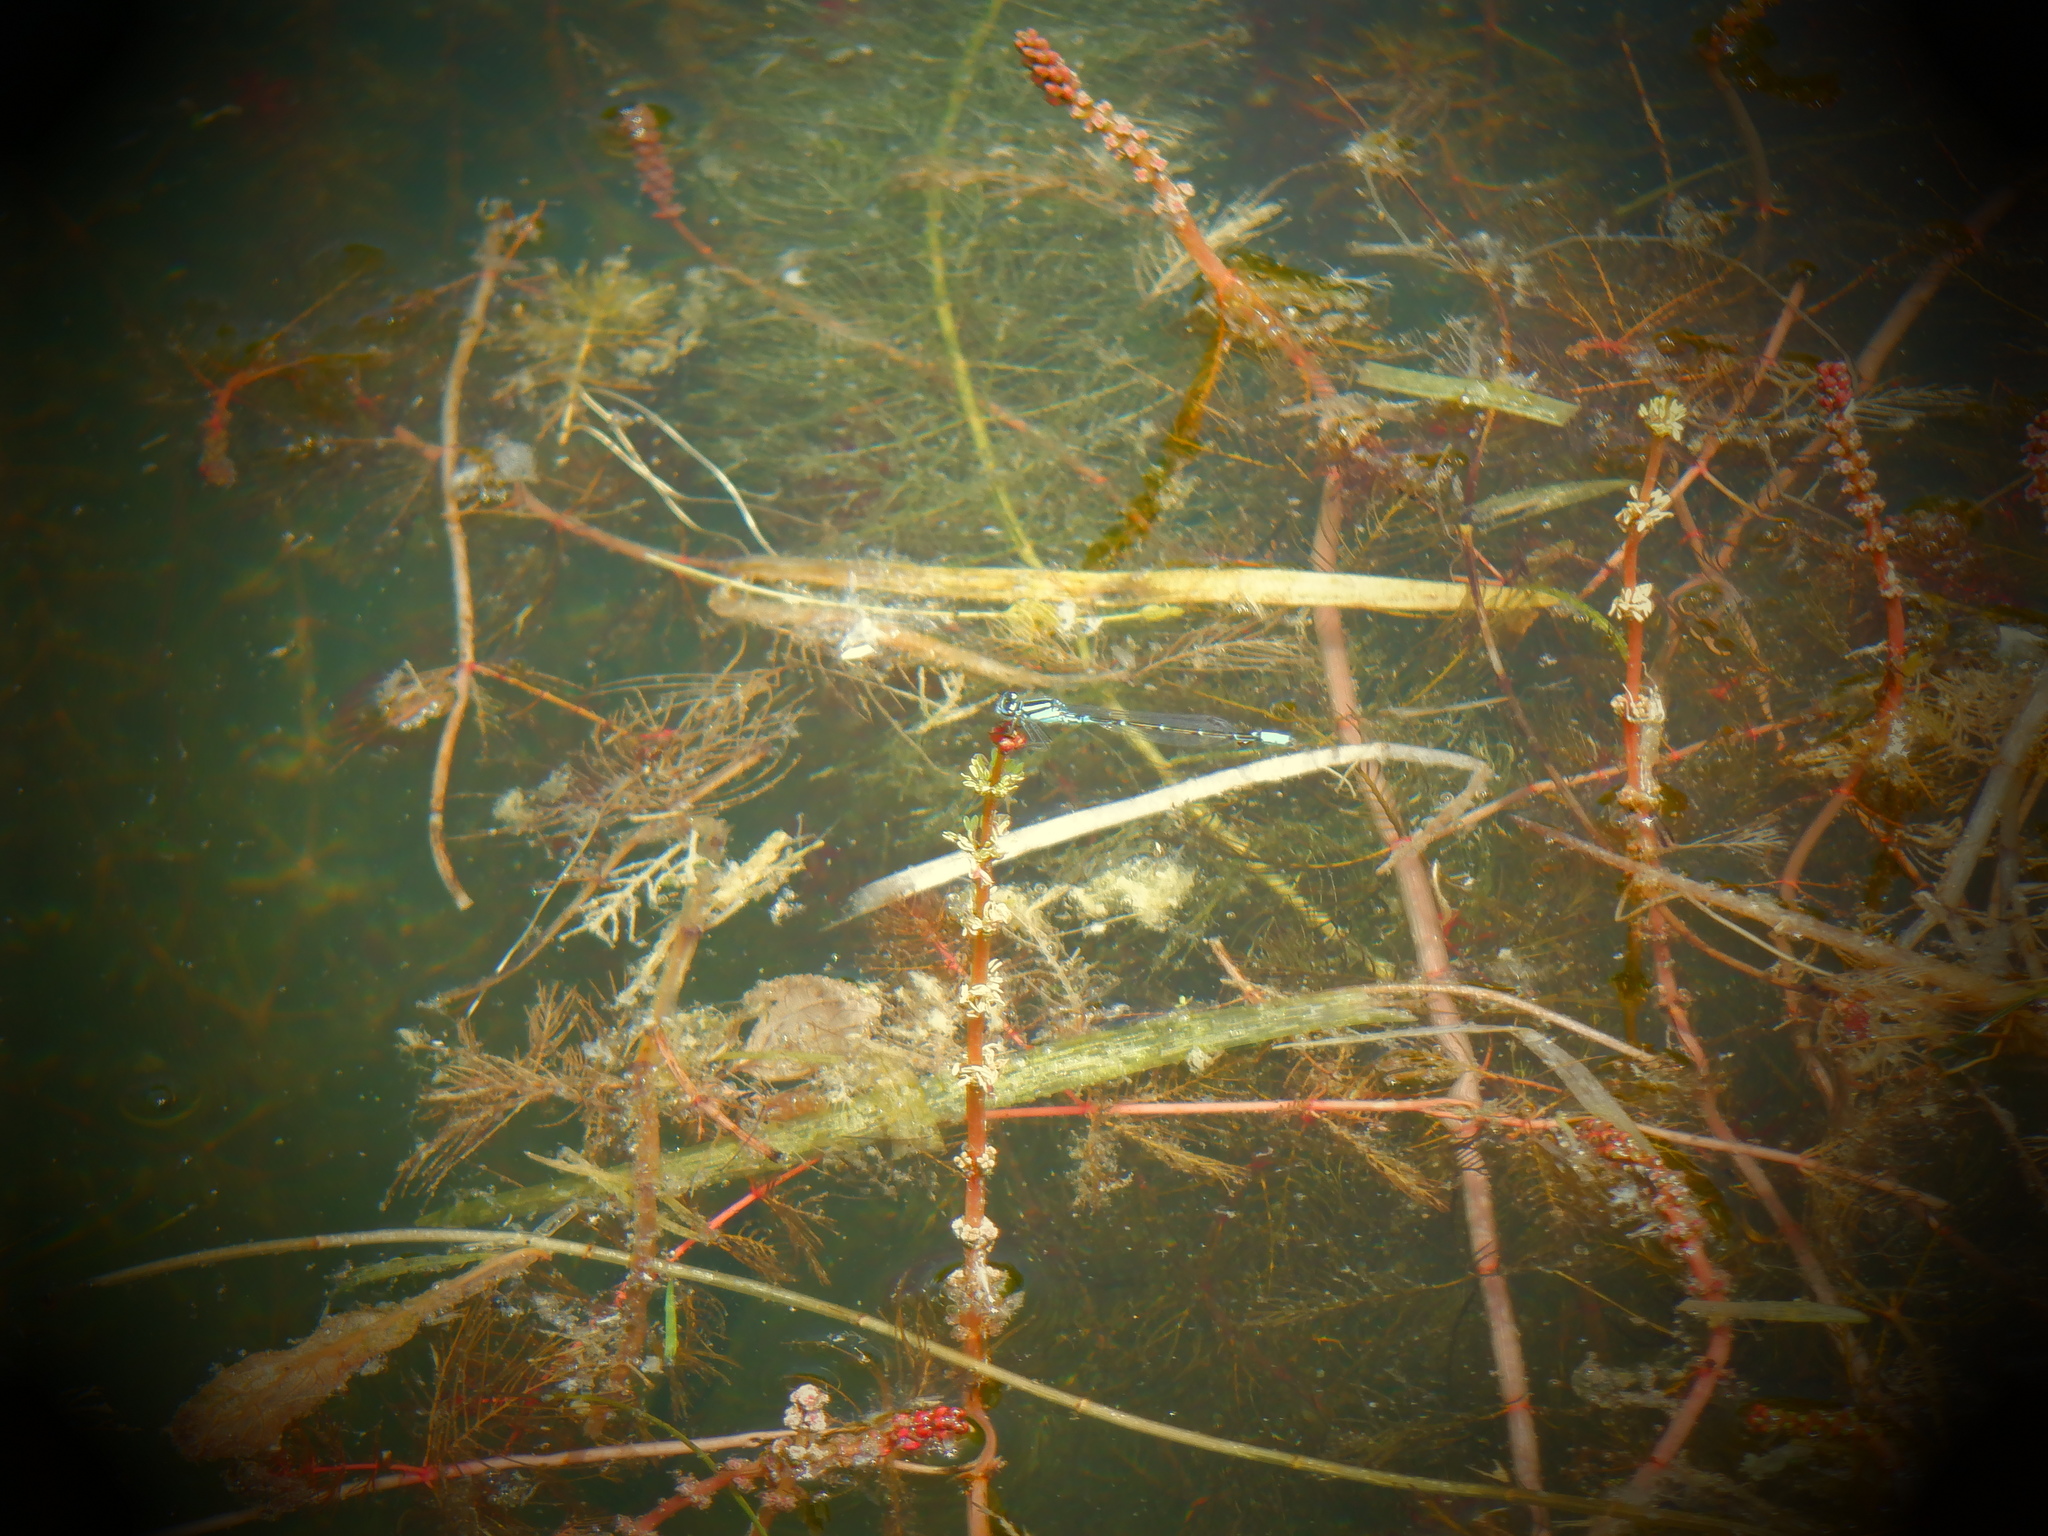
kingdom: Animalia
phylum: Arthropoda
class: Insecta
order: Odonata
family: Coenagrionidae
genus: Enallagma
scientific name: Enallagma geminatum
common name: Skimming bluet
